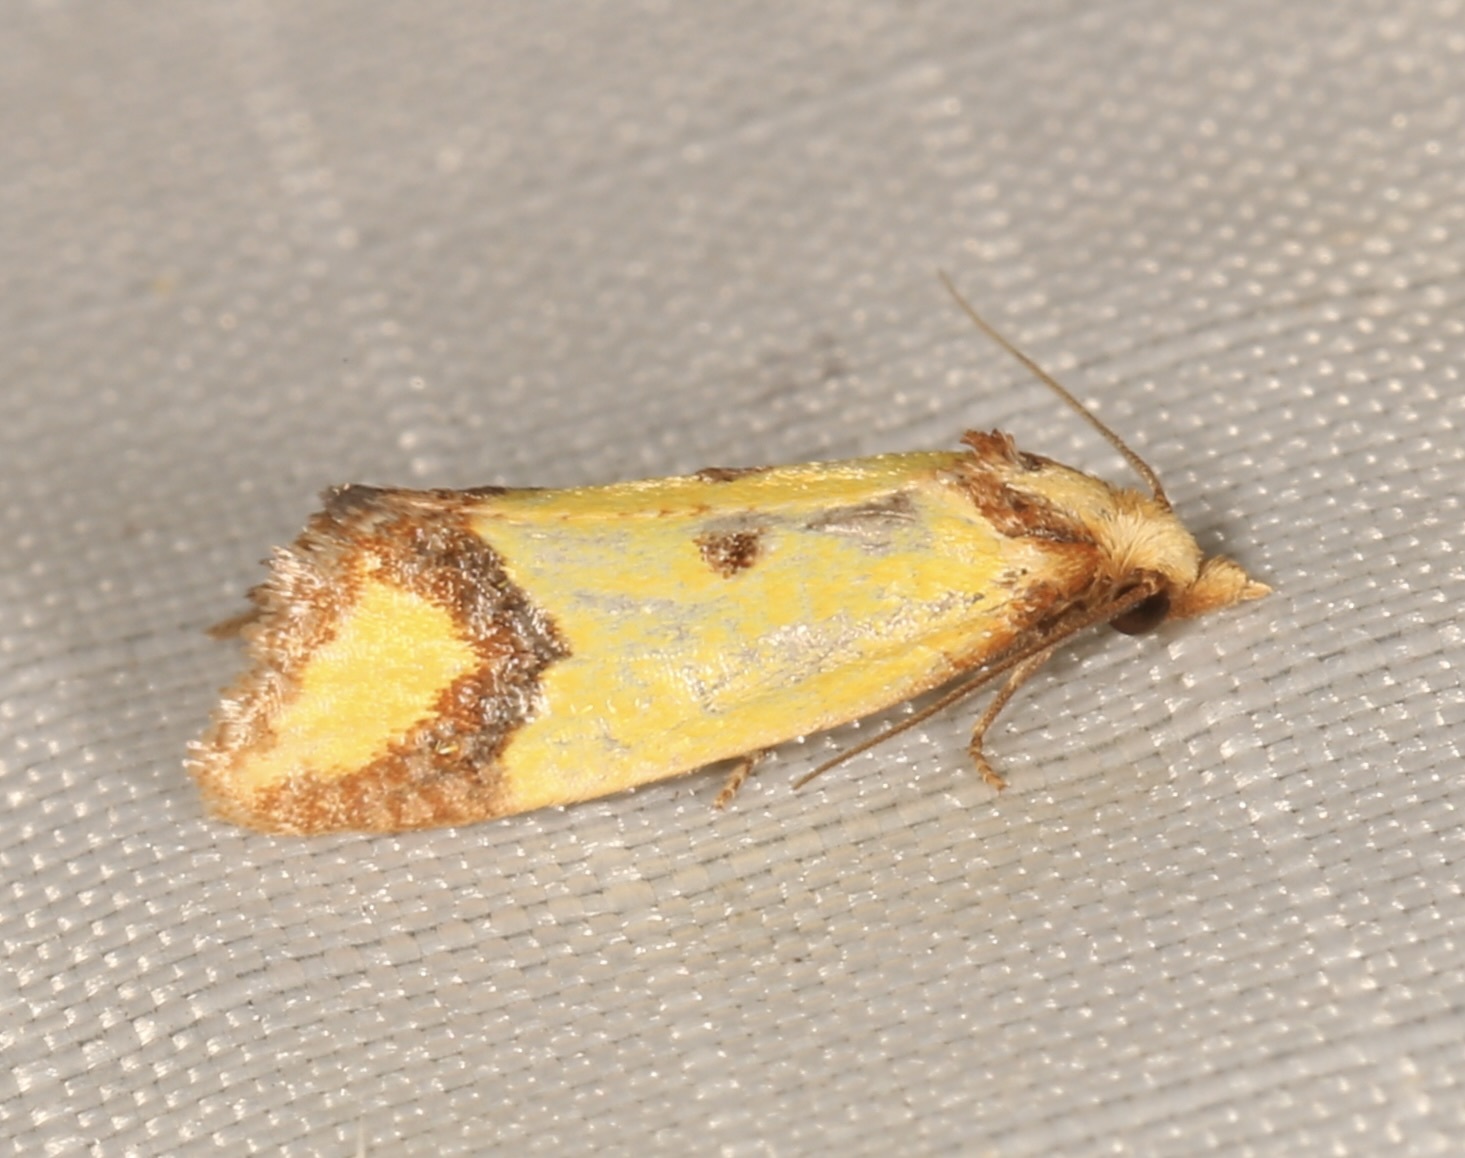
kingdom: Animalia
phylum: Arthropoda
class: Insecta
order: Lepidoptera
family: Tortricidae
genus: Agapeta
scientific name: Agapeta zoegana
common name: Sulfur knapweed root moth
